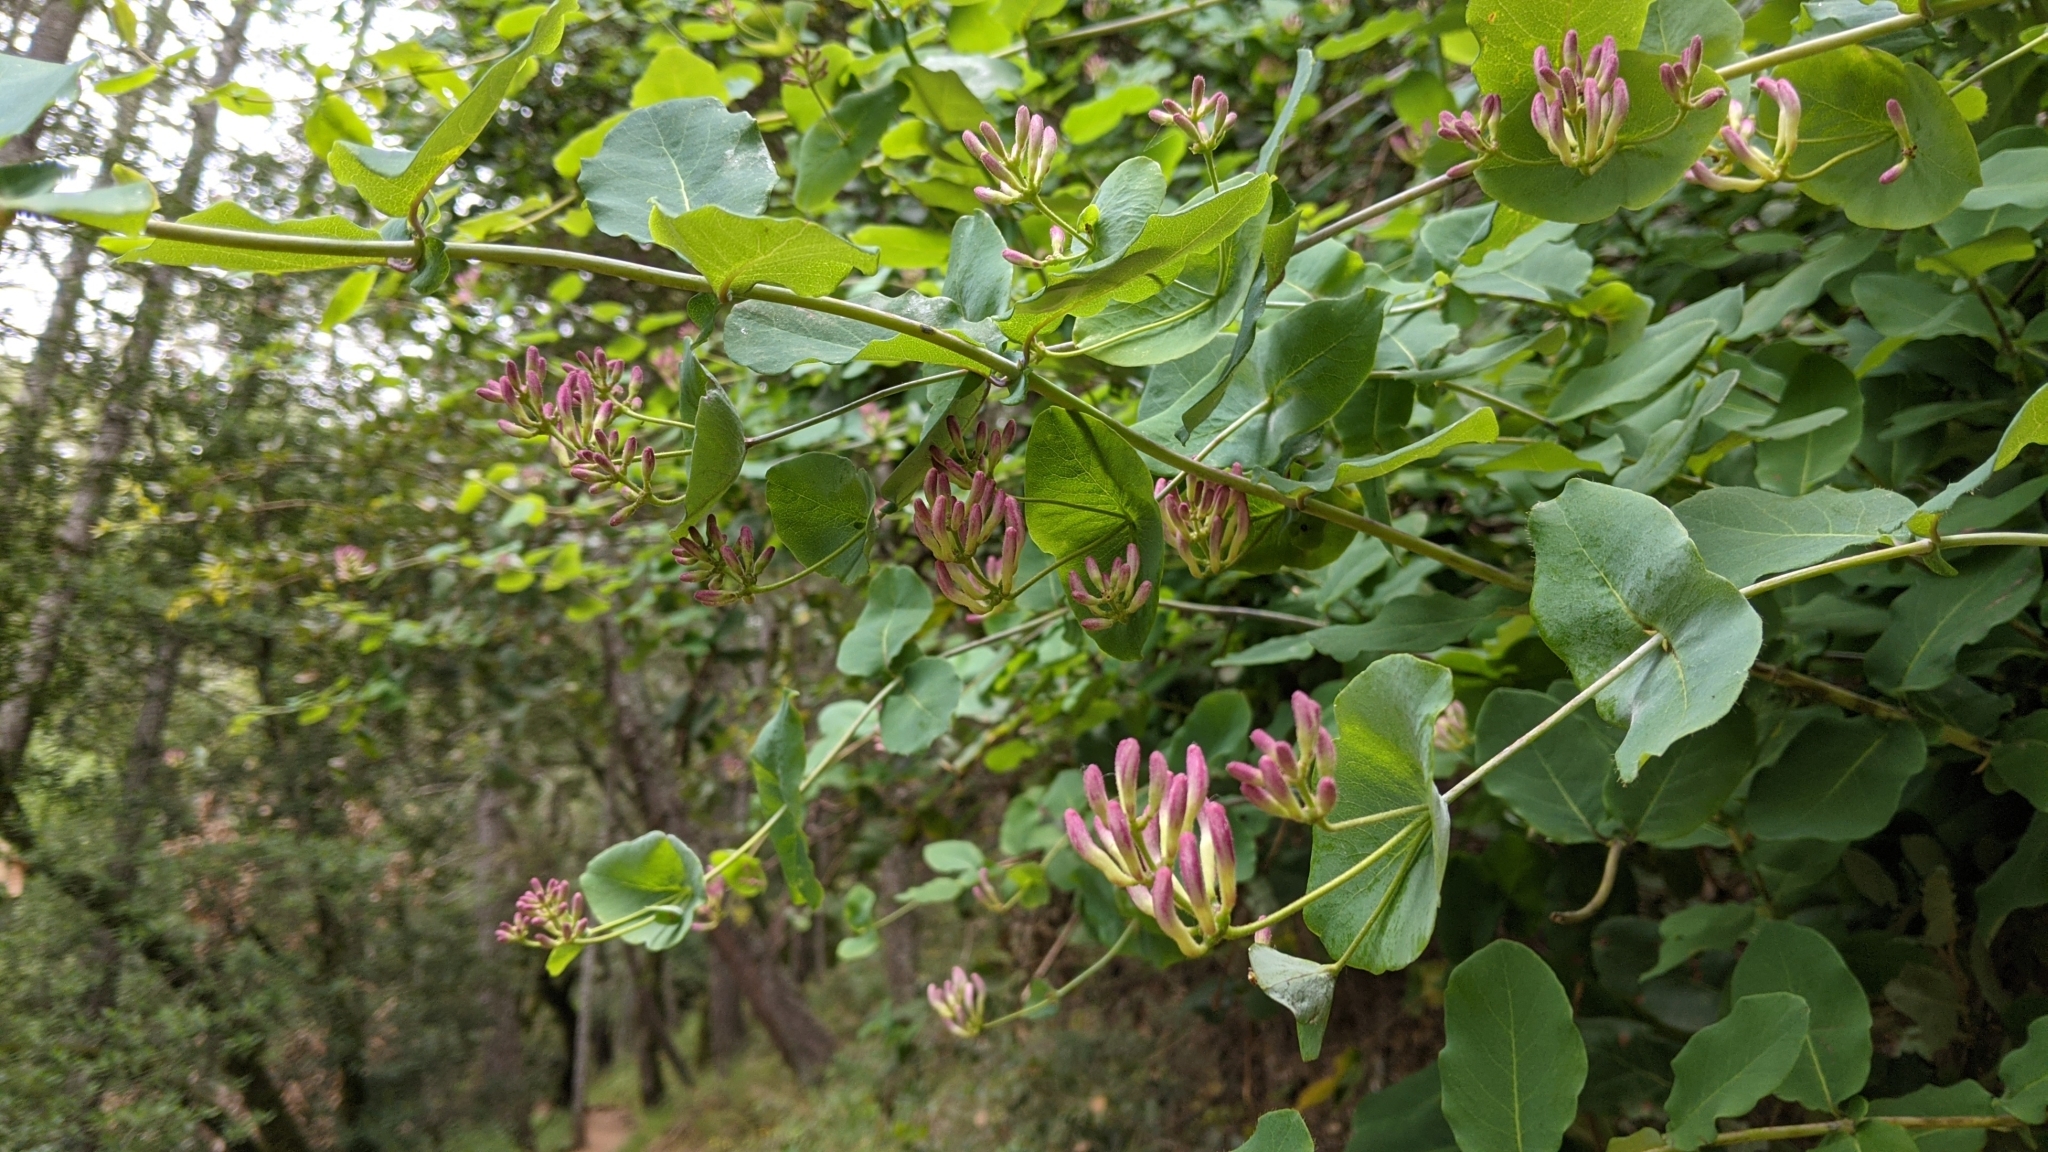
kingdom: Plantae
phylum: Tracheophyta
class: Magnoliopsida
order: Dipsacales
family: Caprifoliaceae
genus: Lonicera
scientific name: Lonicera hispidula
